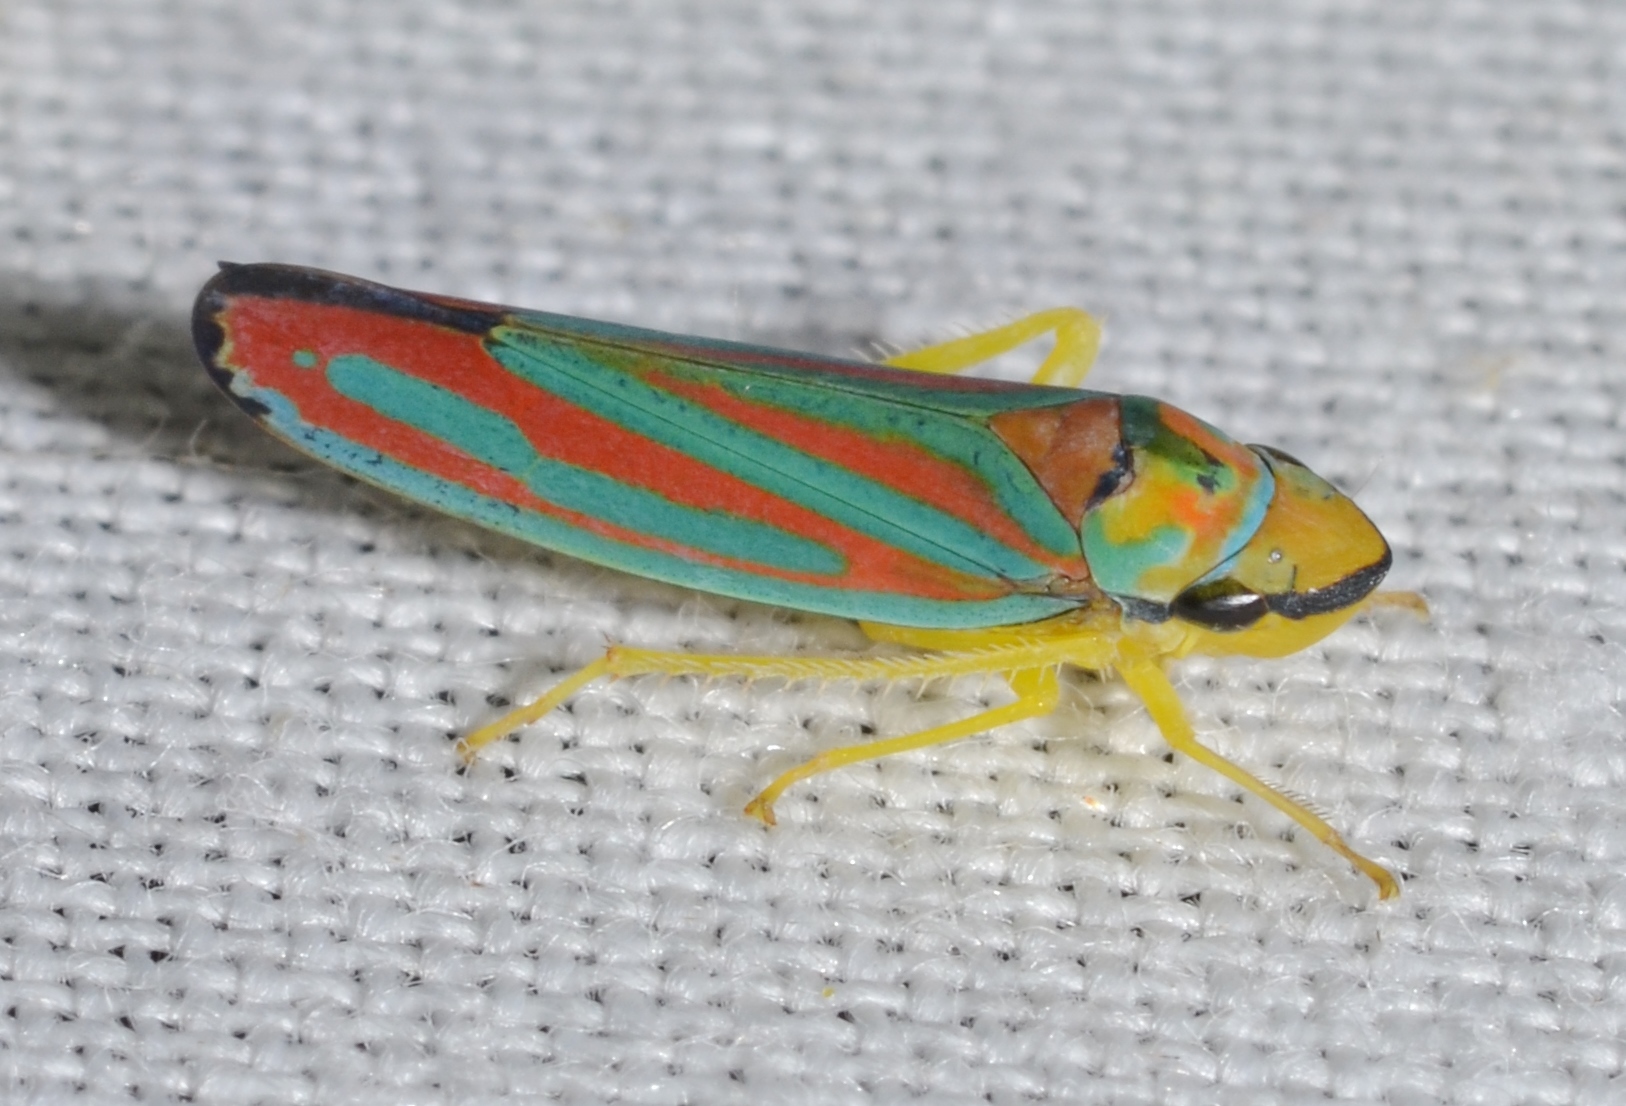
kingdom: Animalia
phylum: Arthropoda
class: Insecta
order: Hemiptera
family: Cicadellidae
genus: Graphocephala
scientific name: Graphocephala coccinea
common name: Candy-striped leafhopper
